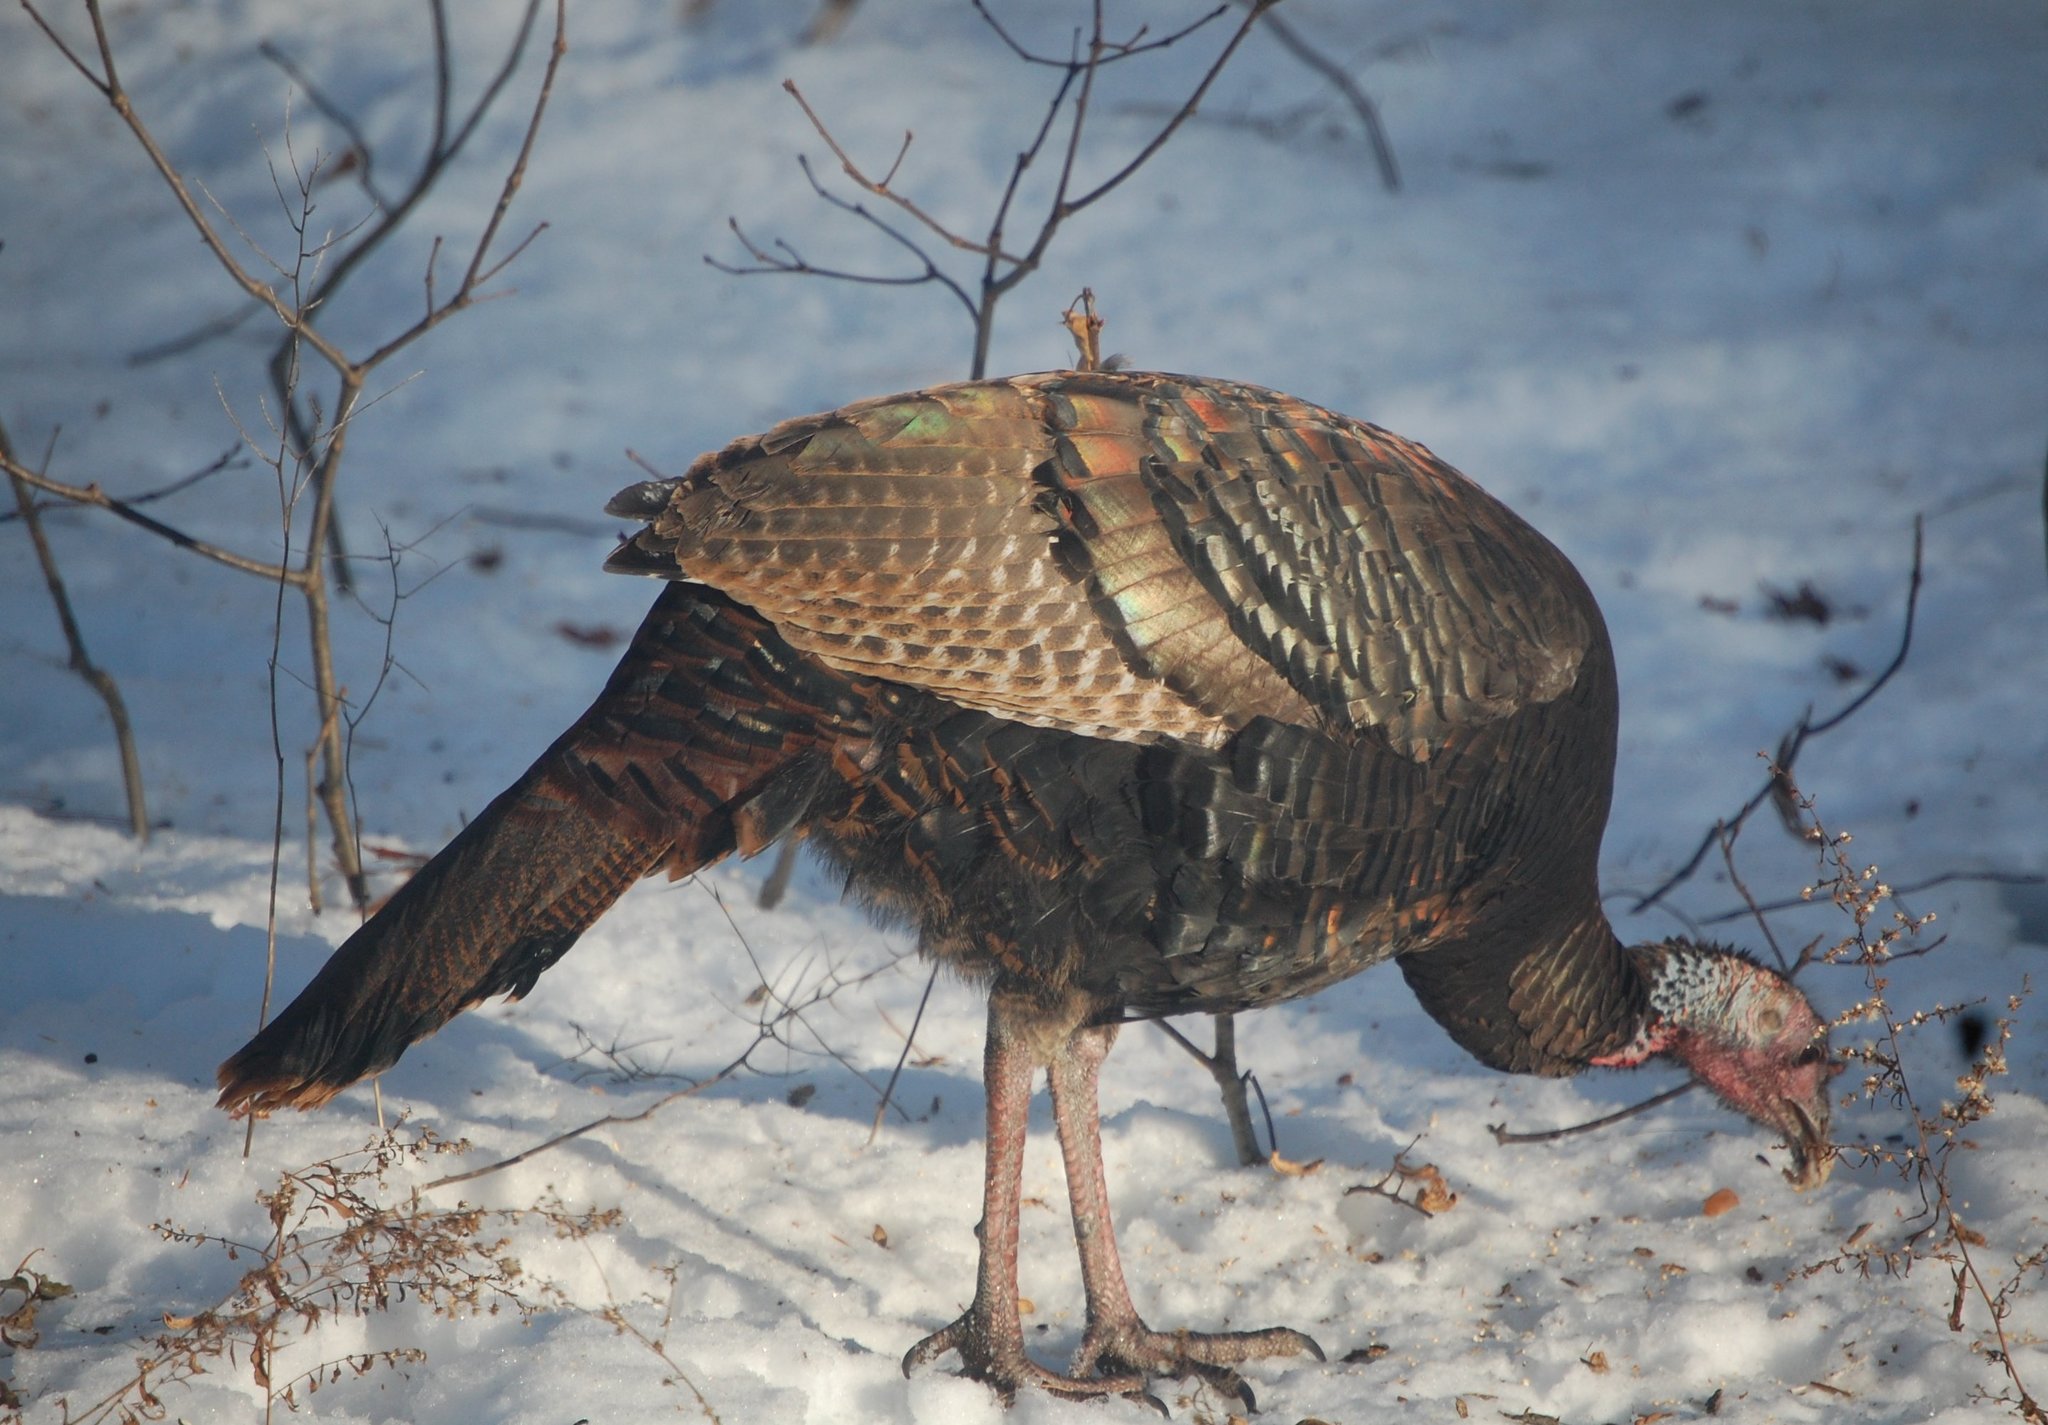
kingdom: Animalia
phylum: Chordata
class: Aves
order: Galliformes
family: Phasianidae
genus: Meleagris
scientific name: Meleagris gallopavo
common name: Wild turkey
